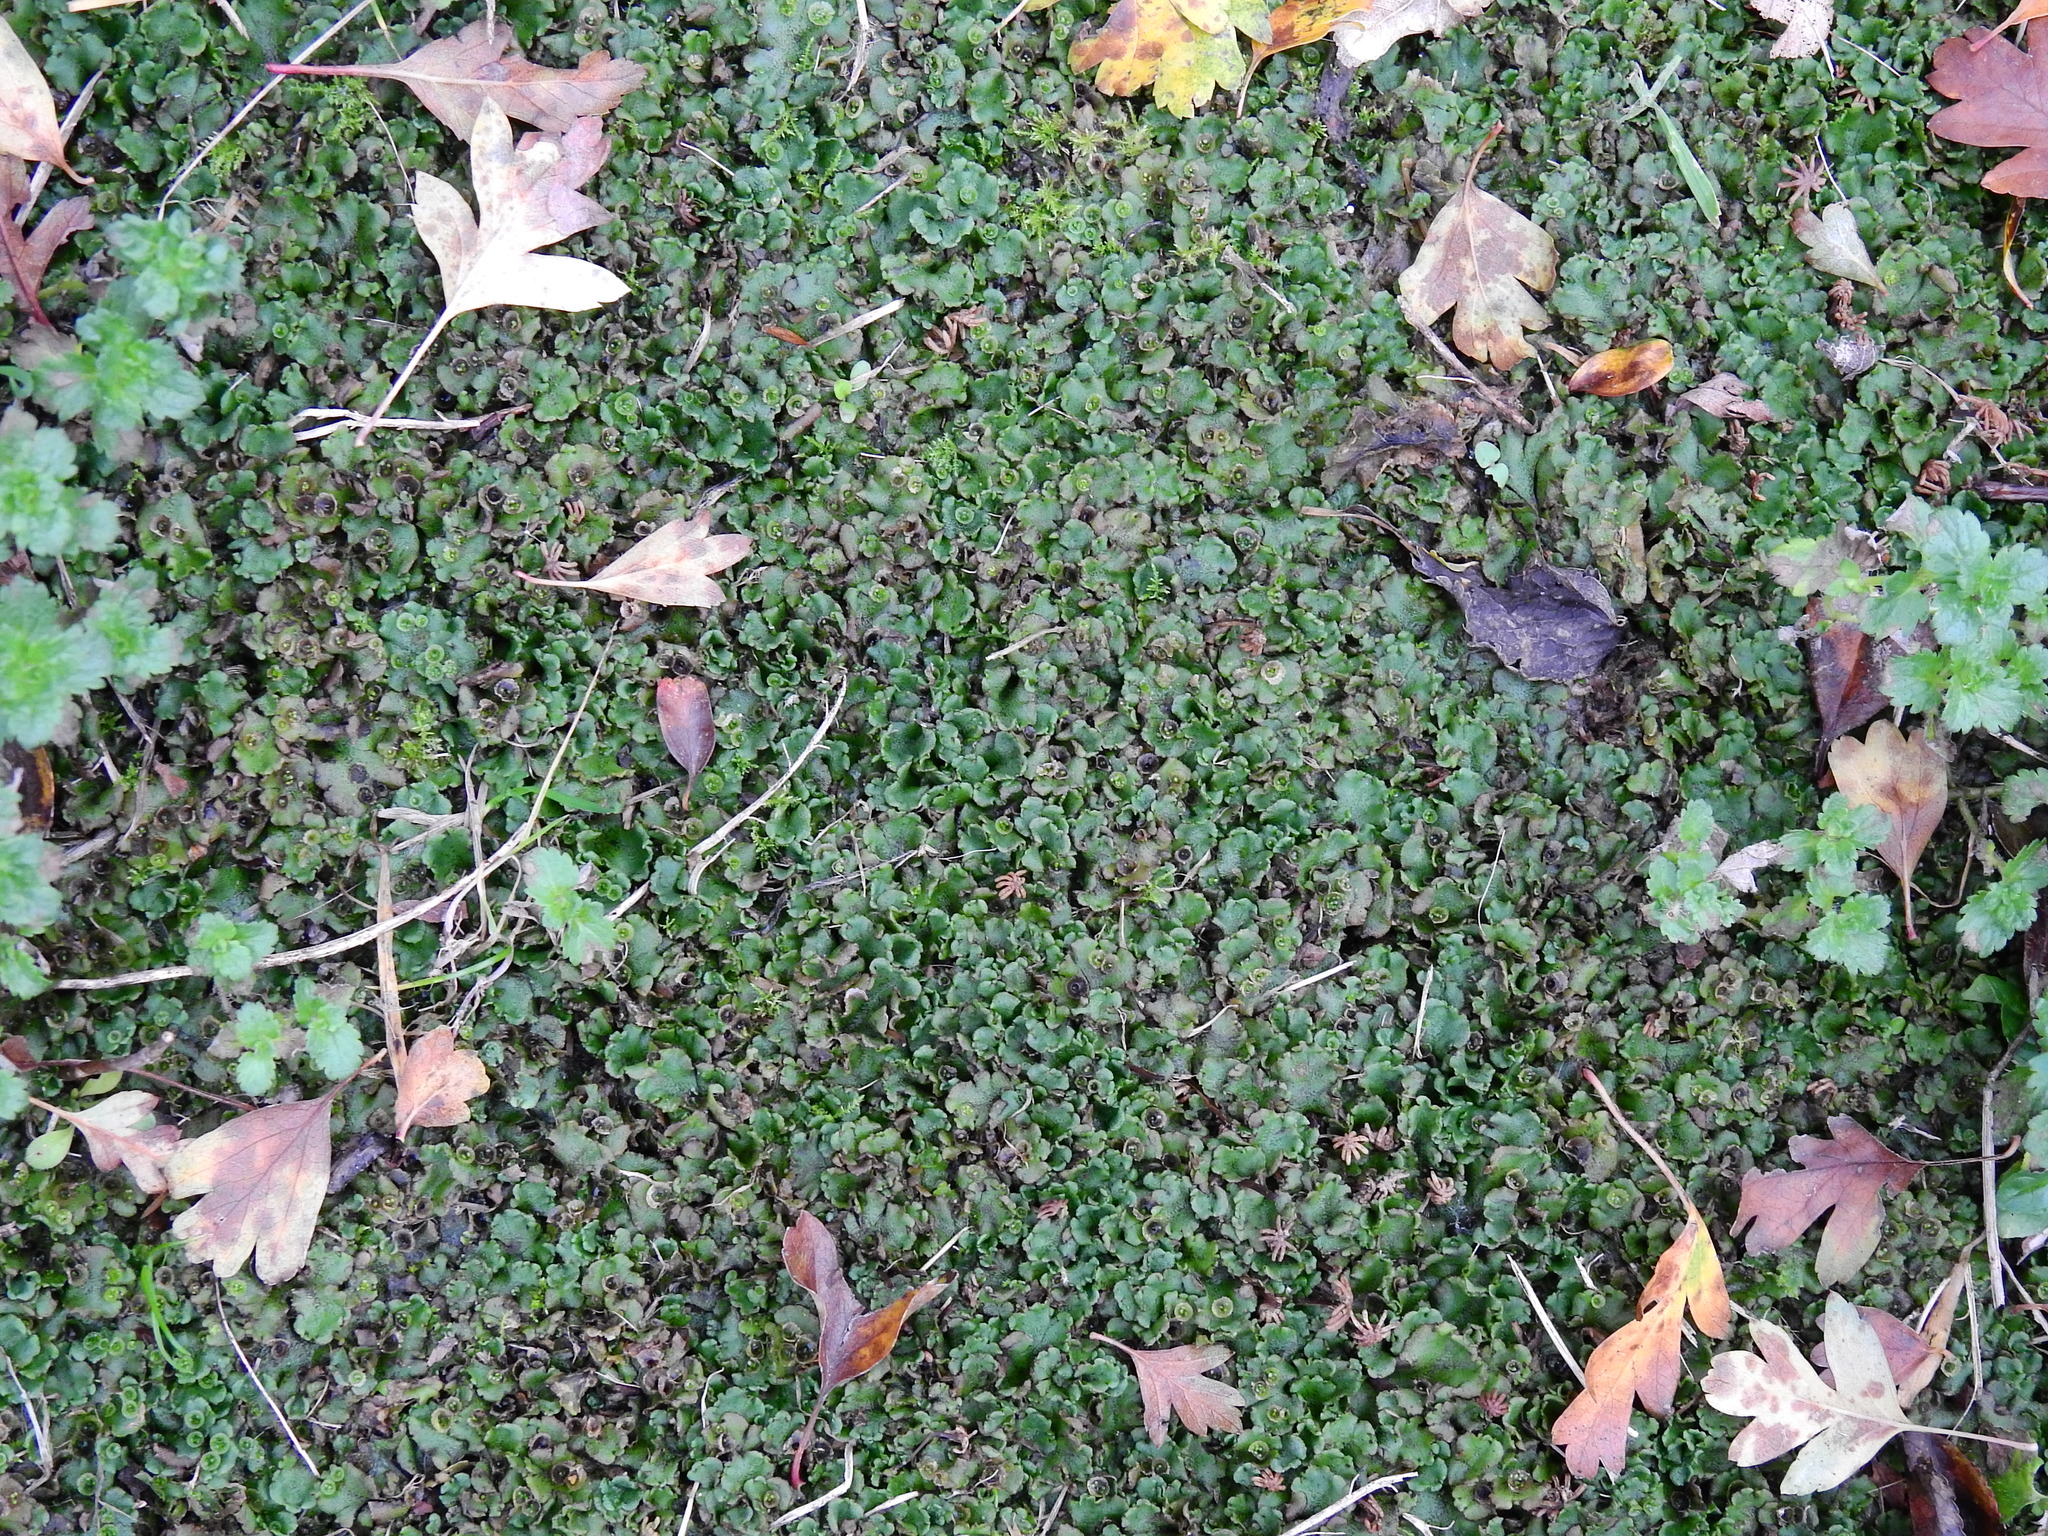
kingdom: Plantae
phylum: Marchantiophyta
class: Marchantiopsida
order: Marchantiales
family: Marchantiaceae
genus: Marchantia
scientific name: Marchantia polymorpha
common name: Common liverwort
